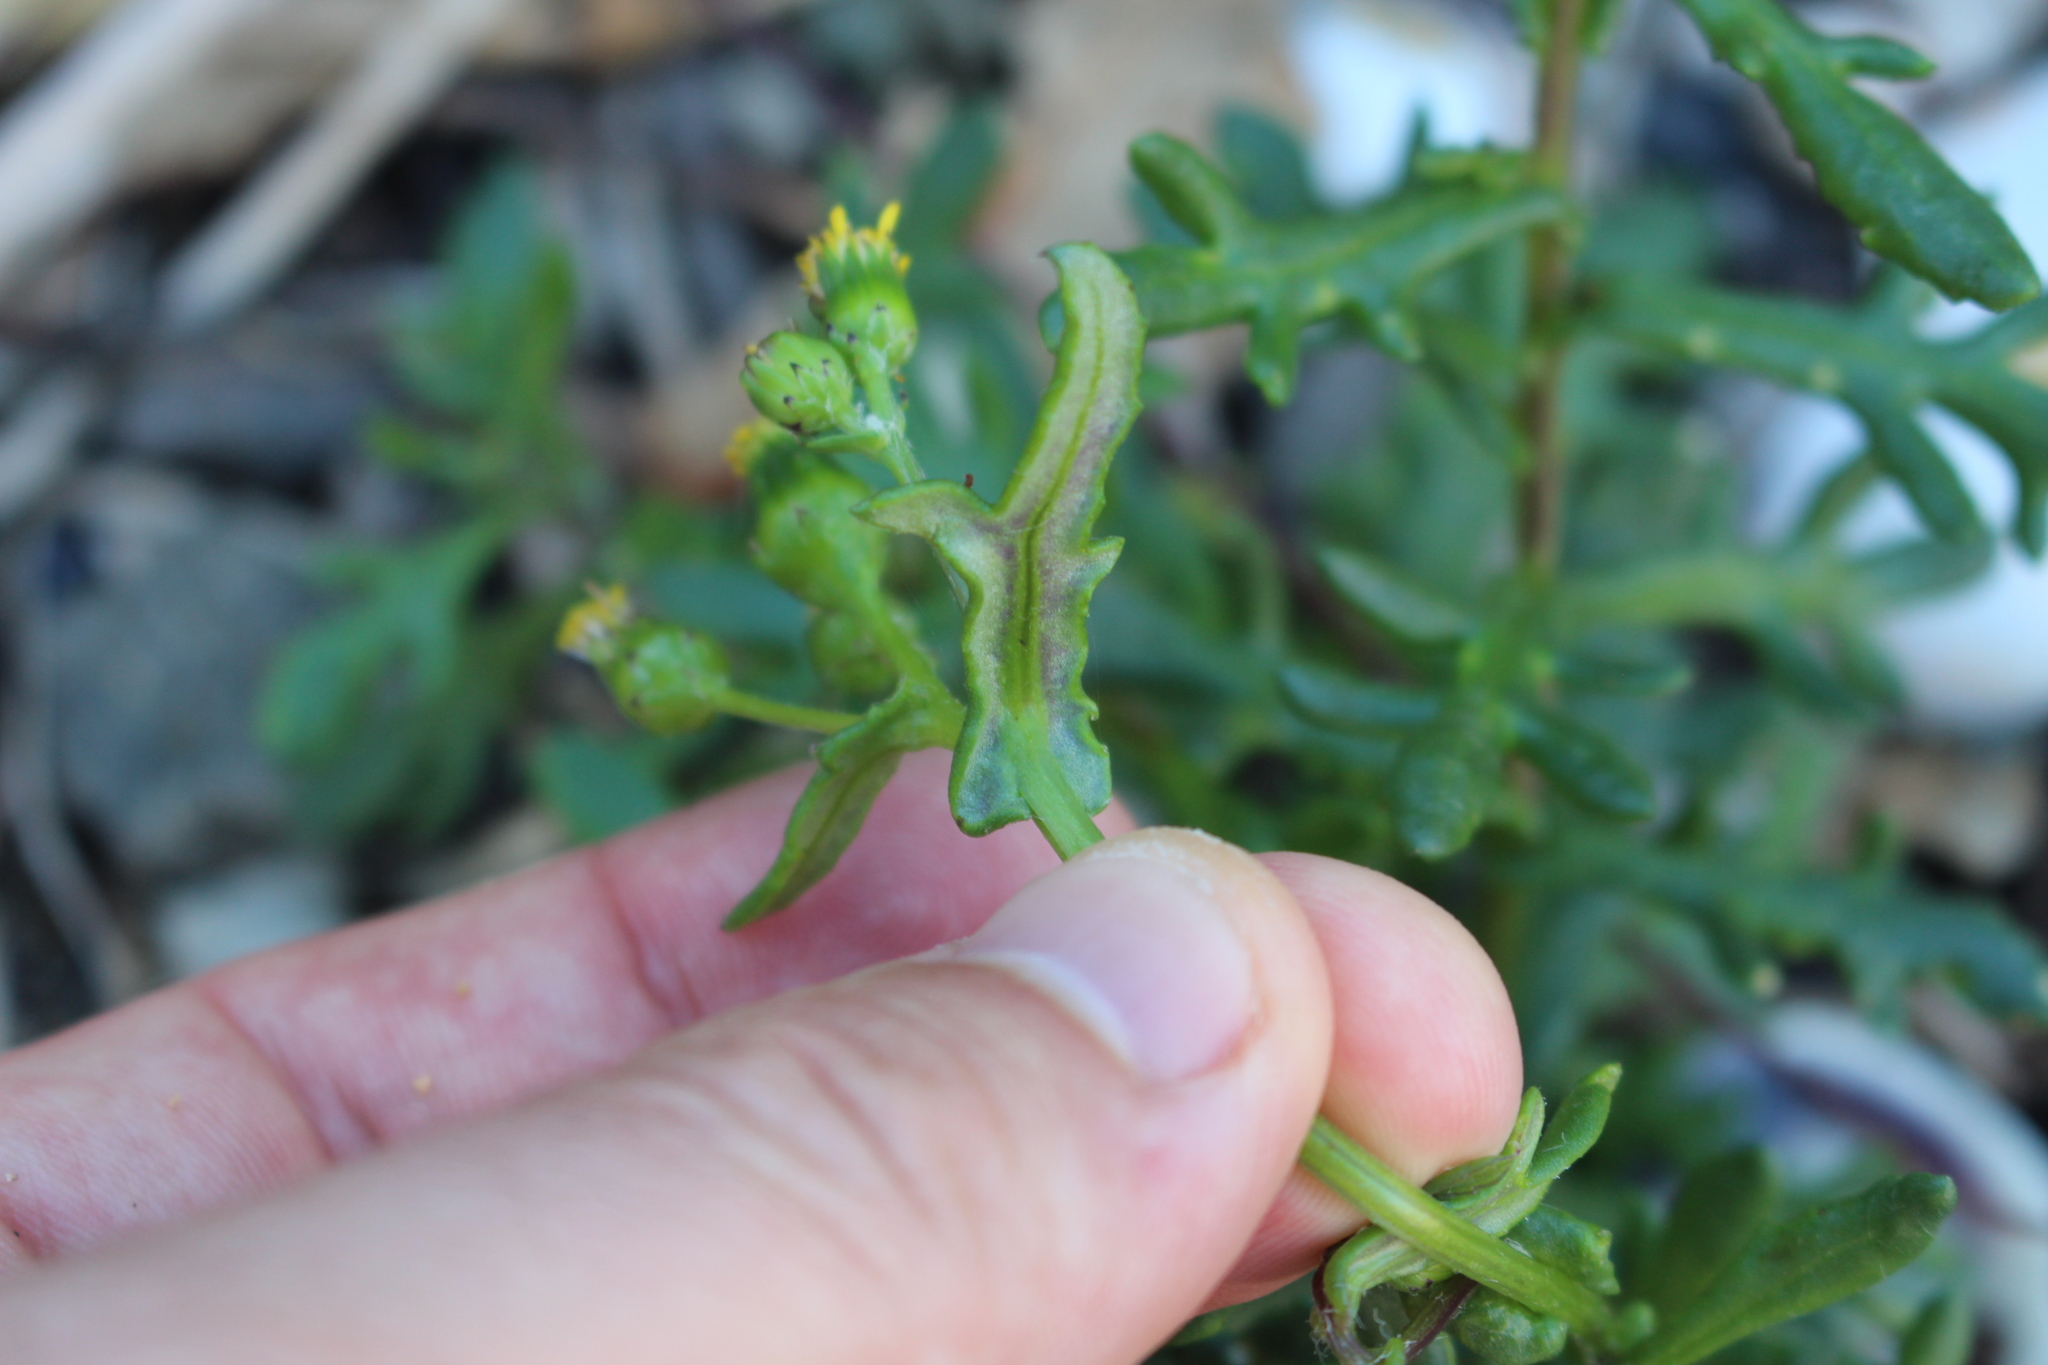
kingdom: Plantae
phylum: Tracheophyta
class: Magnoliopsida
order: Asterales
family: Asteraceae
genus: Senecio
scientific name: Senecio carnosulus
